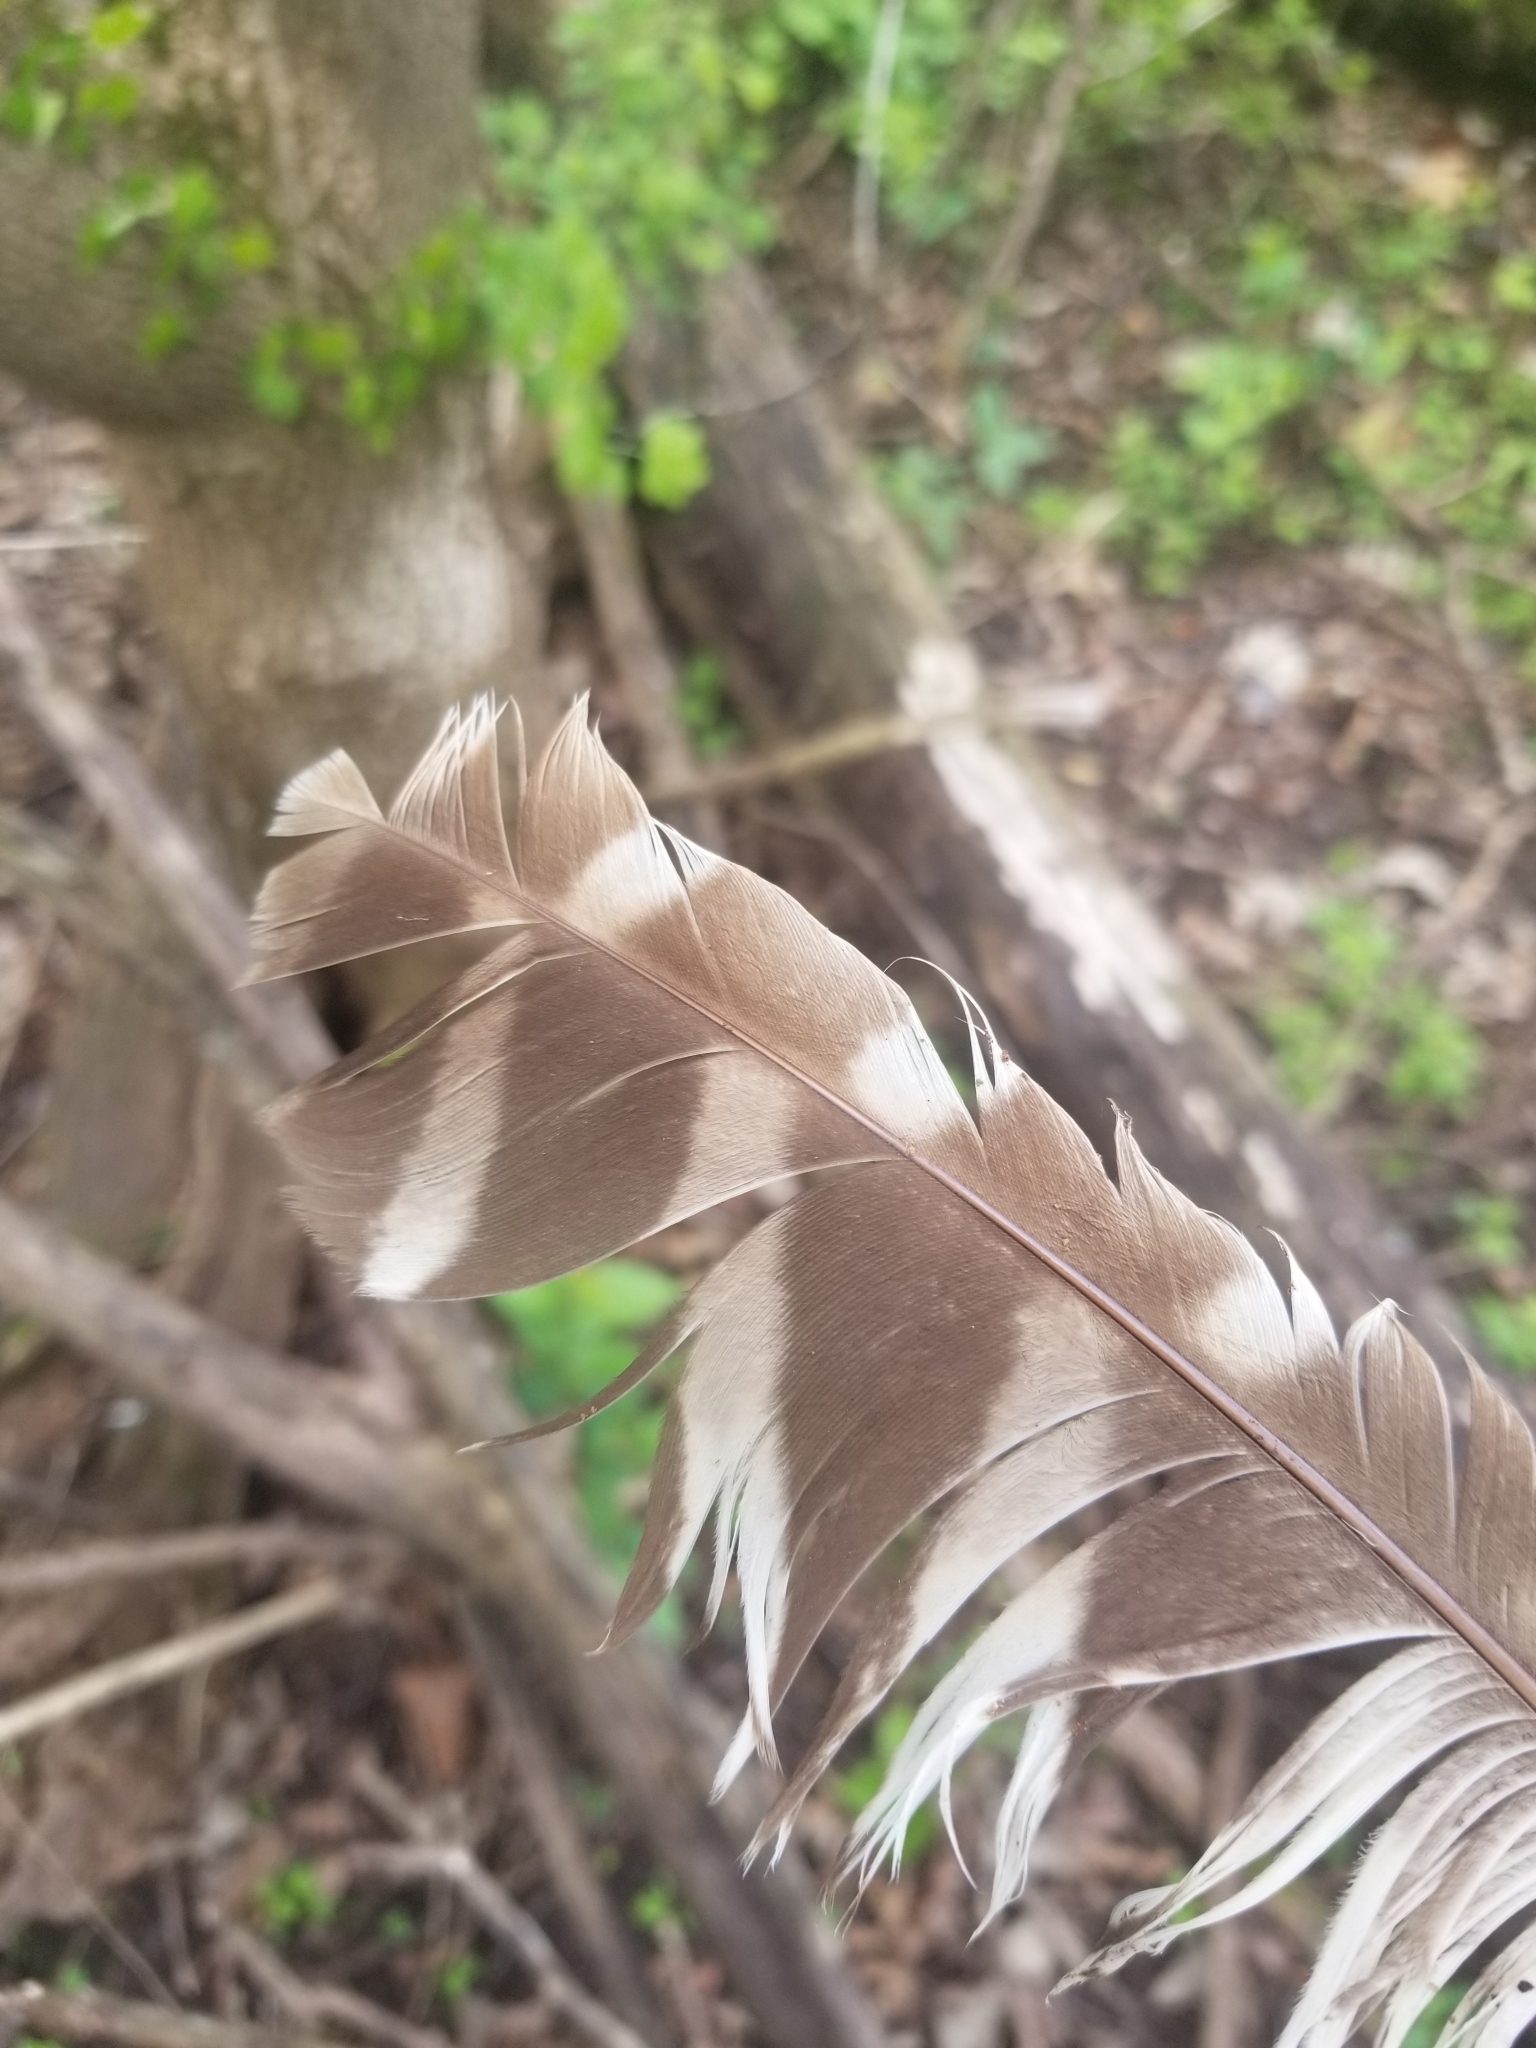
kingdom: Animalia
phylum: Chordata
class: Aves
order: Strigiformes
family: Strigidae
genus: Strix
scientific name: Strix varia
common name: Barred owl
